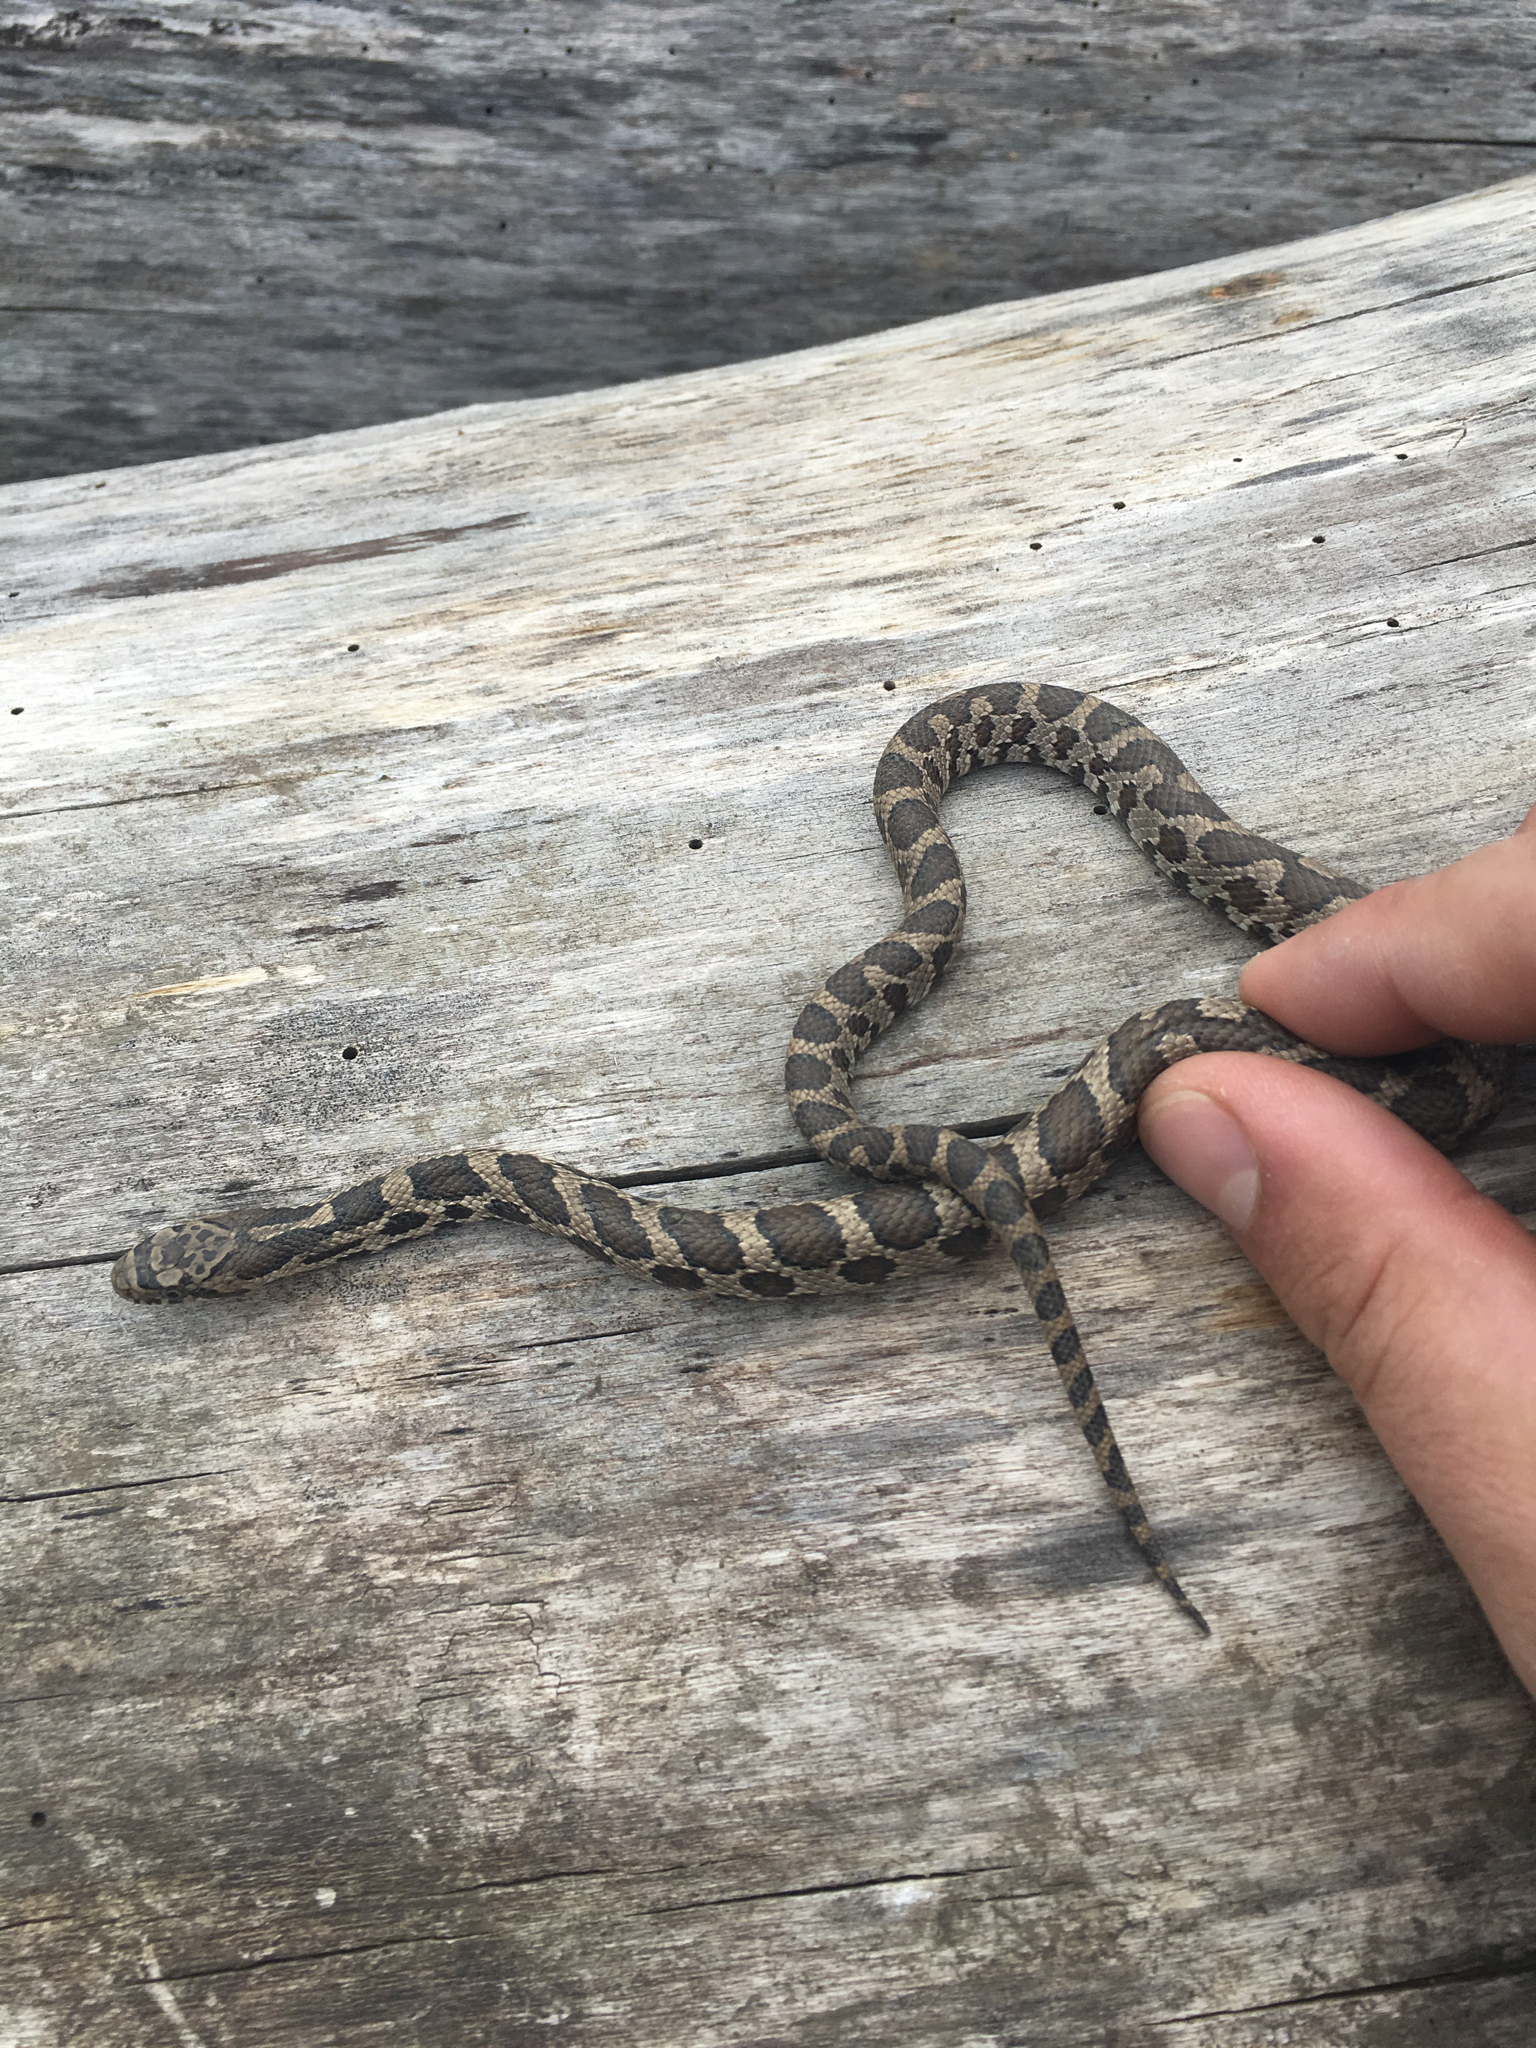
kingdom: Animalia
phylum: Chordata
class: Squamata
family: Colubridae
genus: Pantherophis
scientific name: Pantherophis vulpinus
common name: Eastern fox snake
